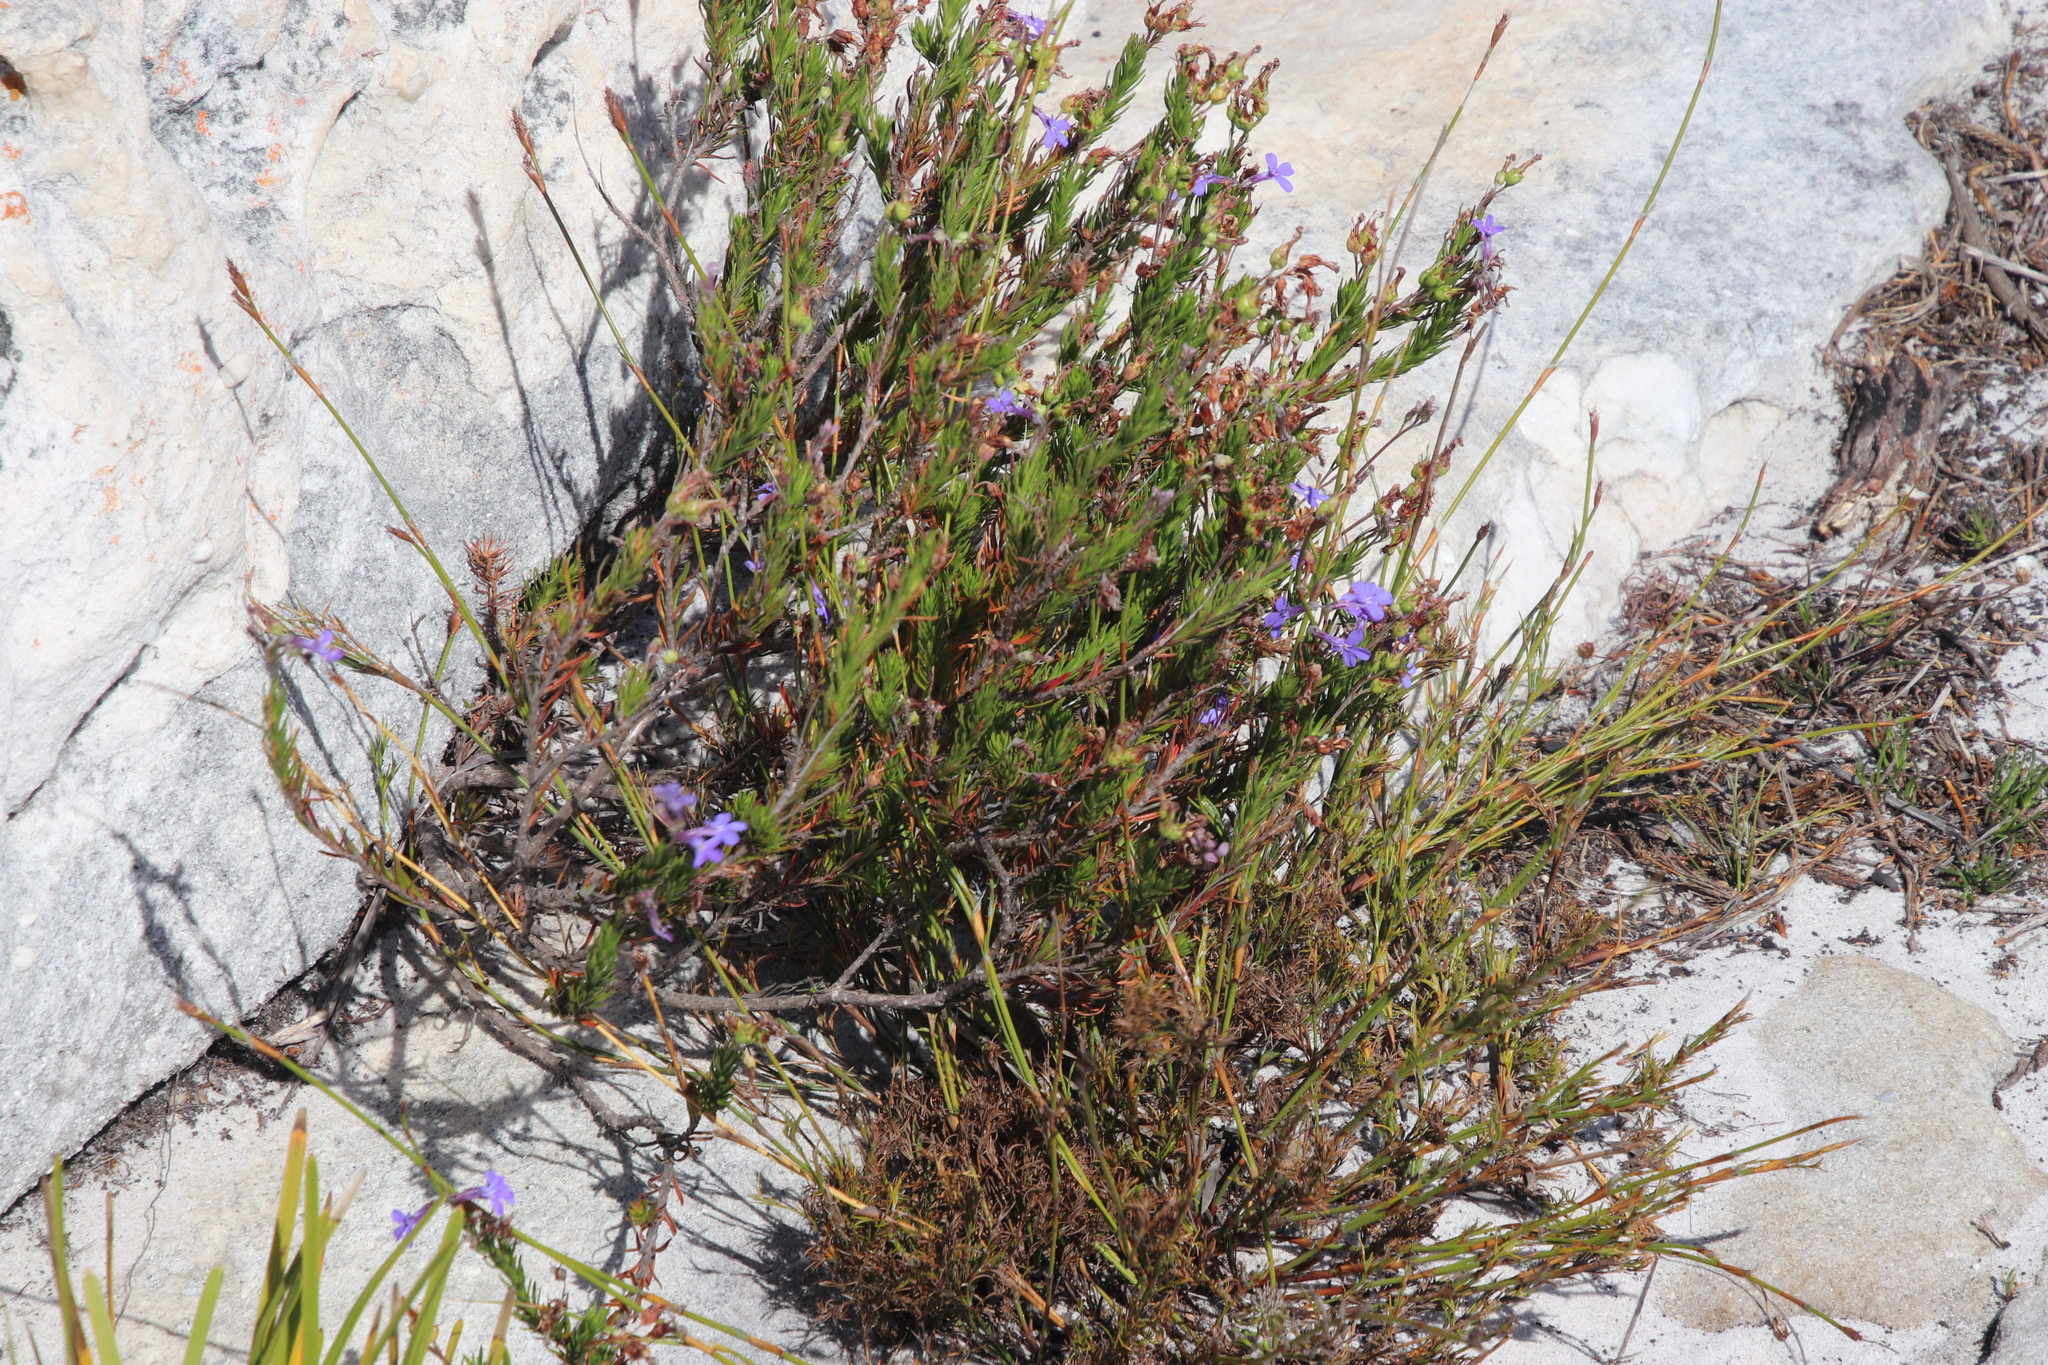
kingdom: Plantae
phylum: Tracheophyta
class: Magnoliopsida
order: Asterales
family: Campanulaceae
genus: Lobelia
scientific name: Lobelia pinifolia
